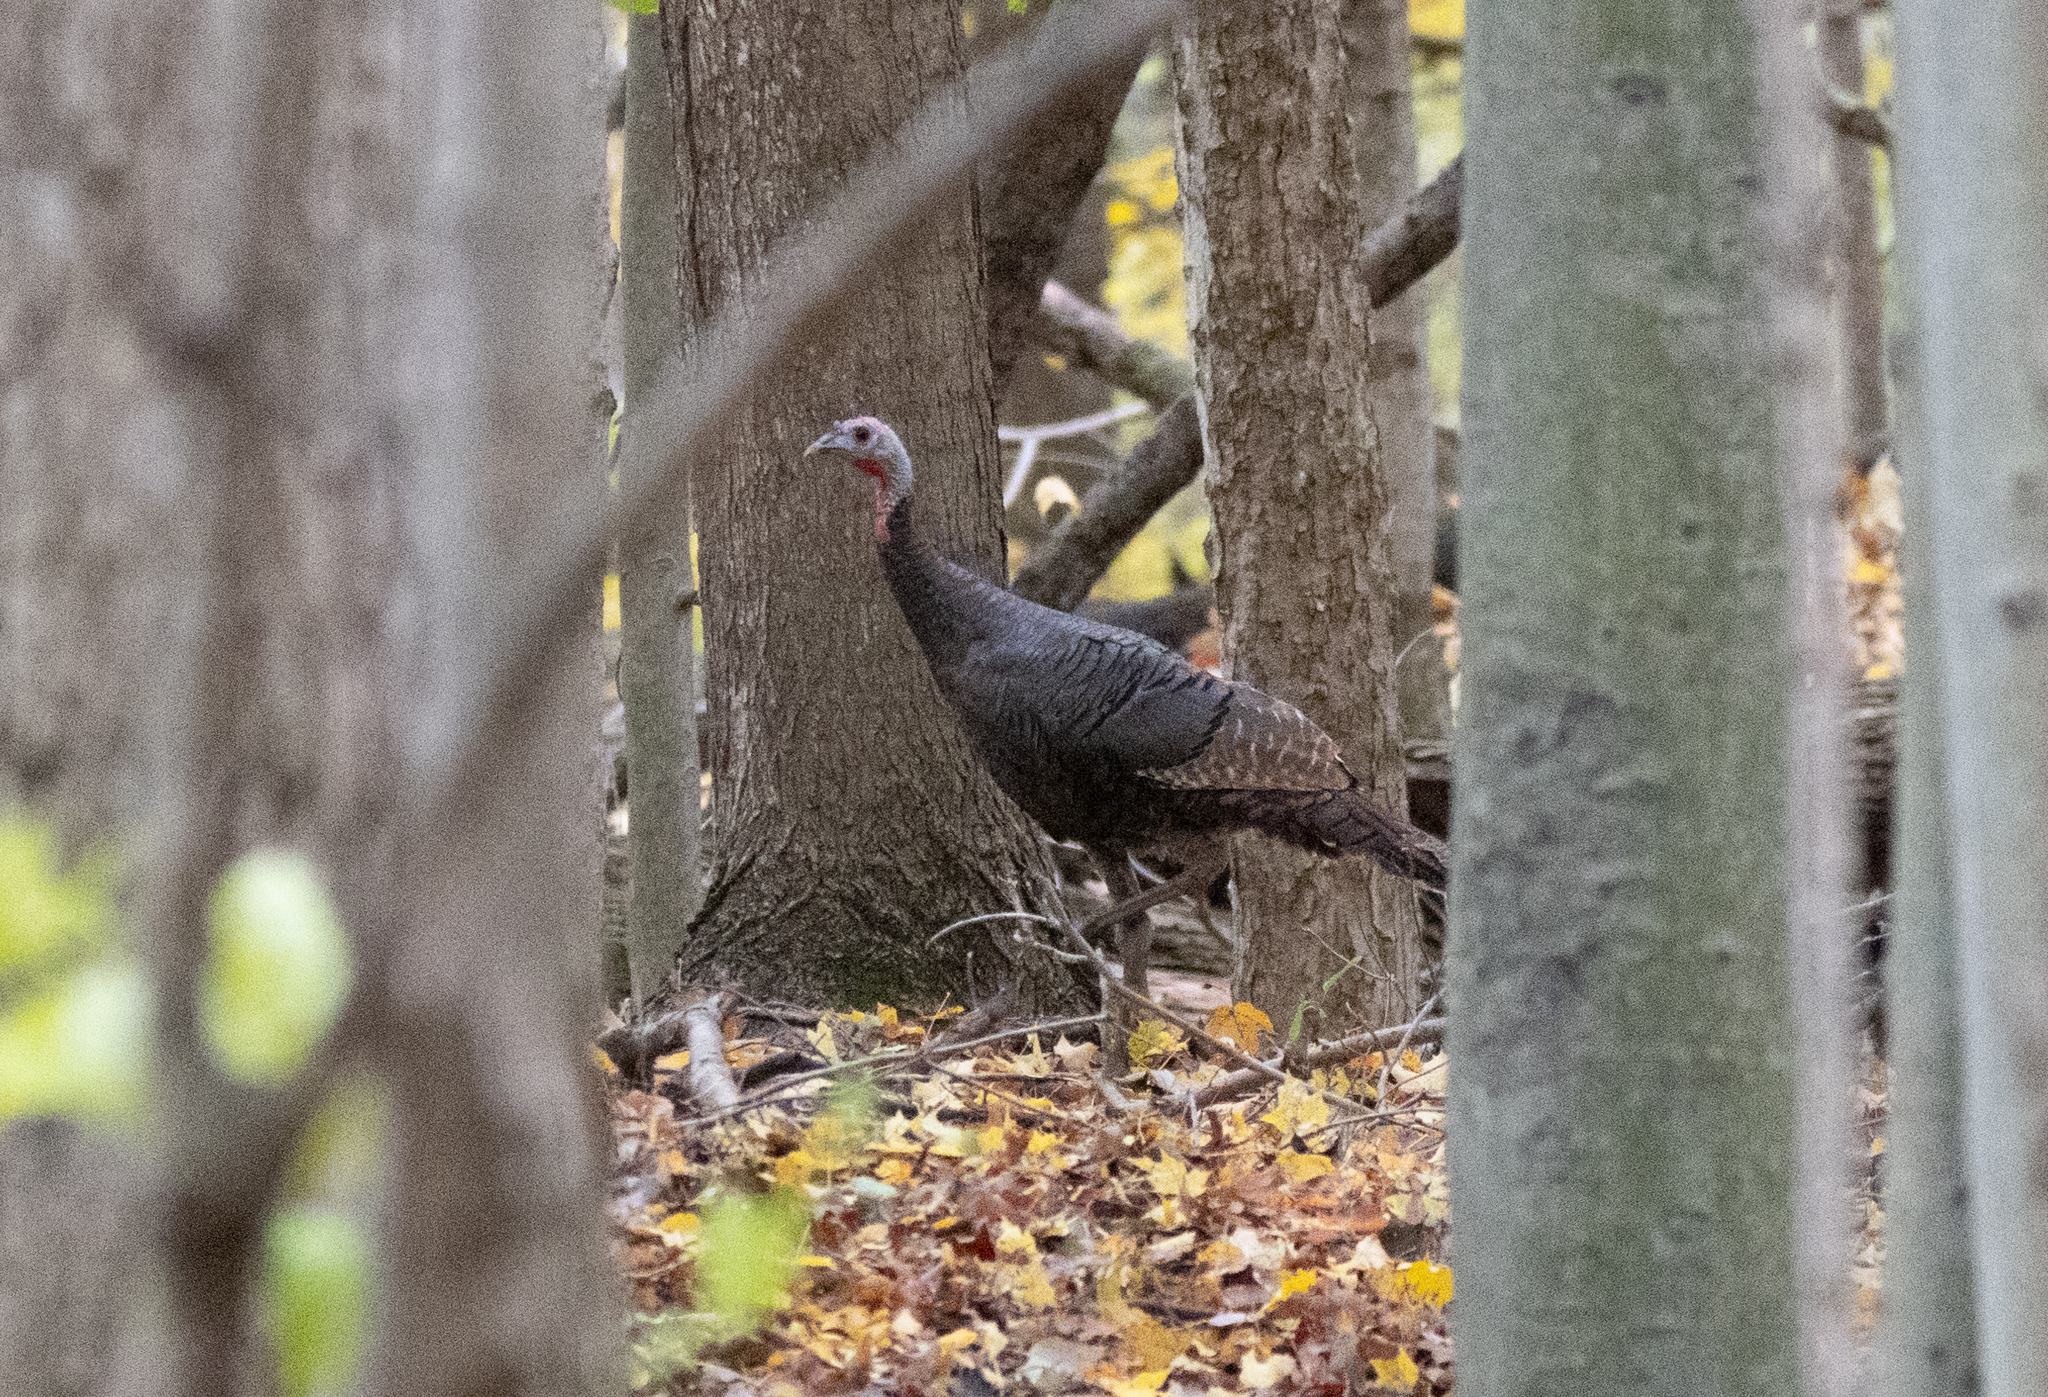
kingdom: Animalia
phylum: Chordata
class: Aves
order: Galliformes
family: Phasianidae
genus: Meleagris
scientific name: Meleagris gallopavo
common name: Wild turkey
